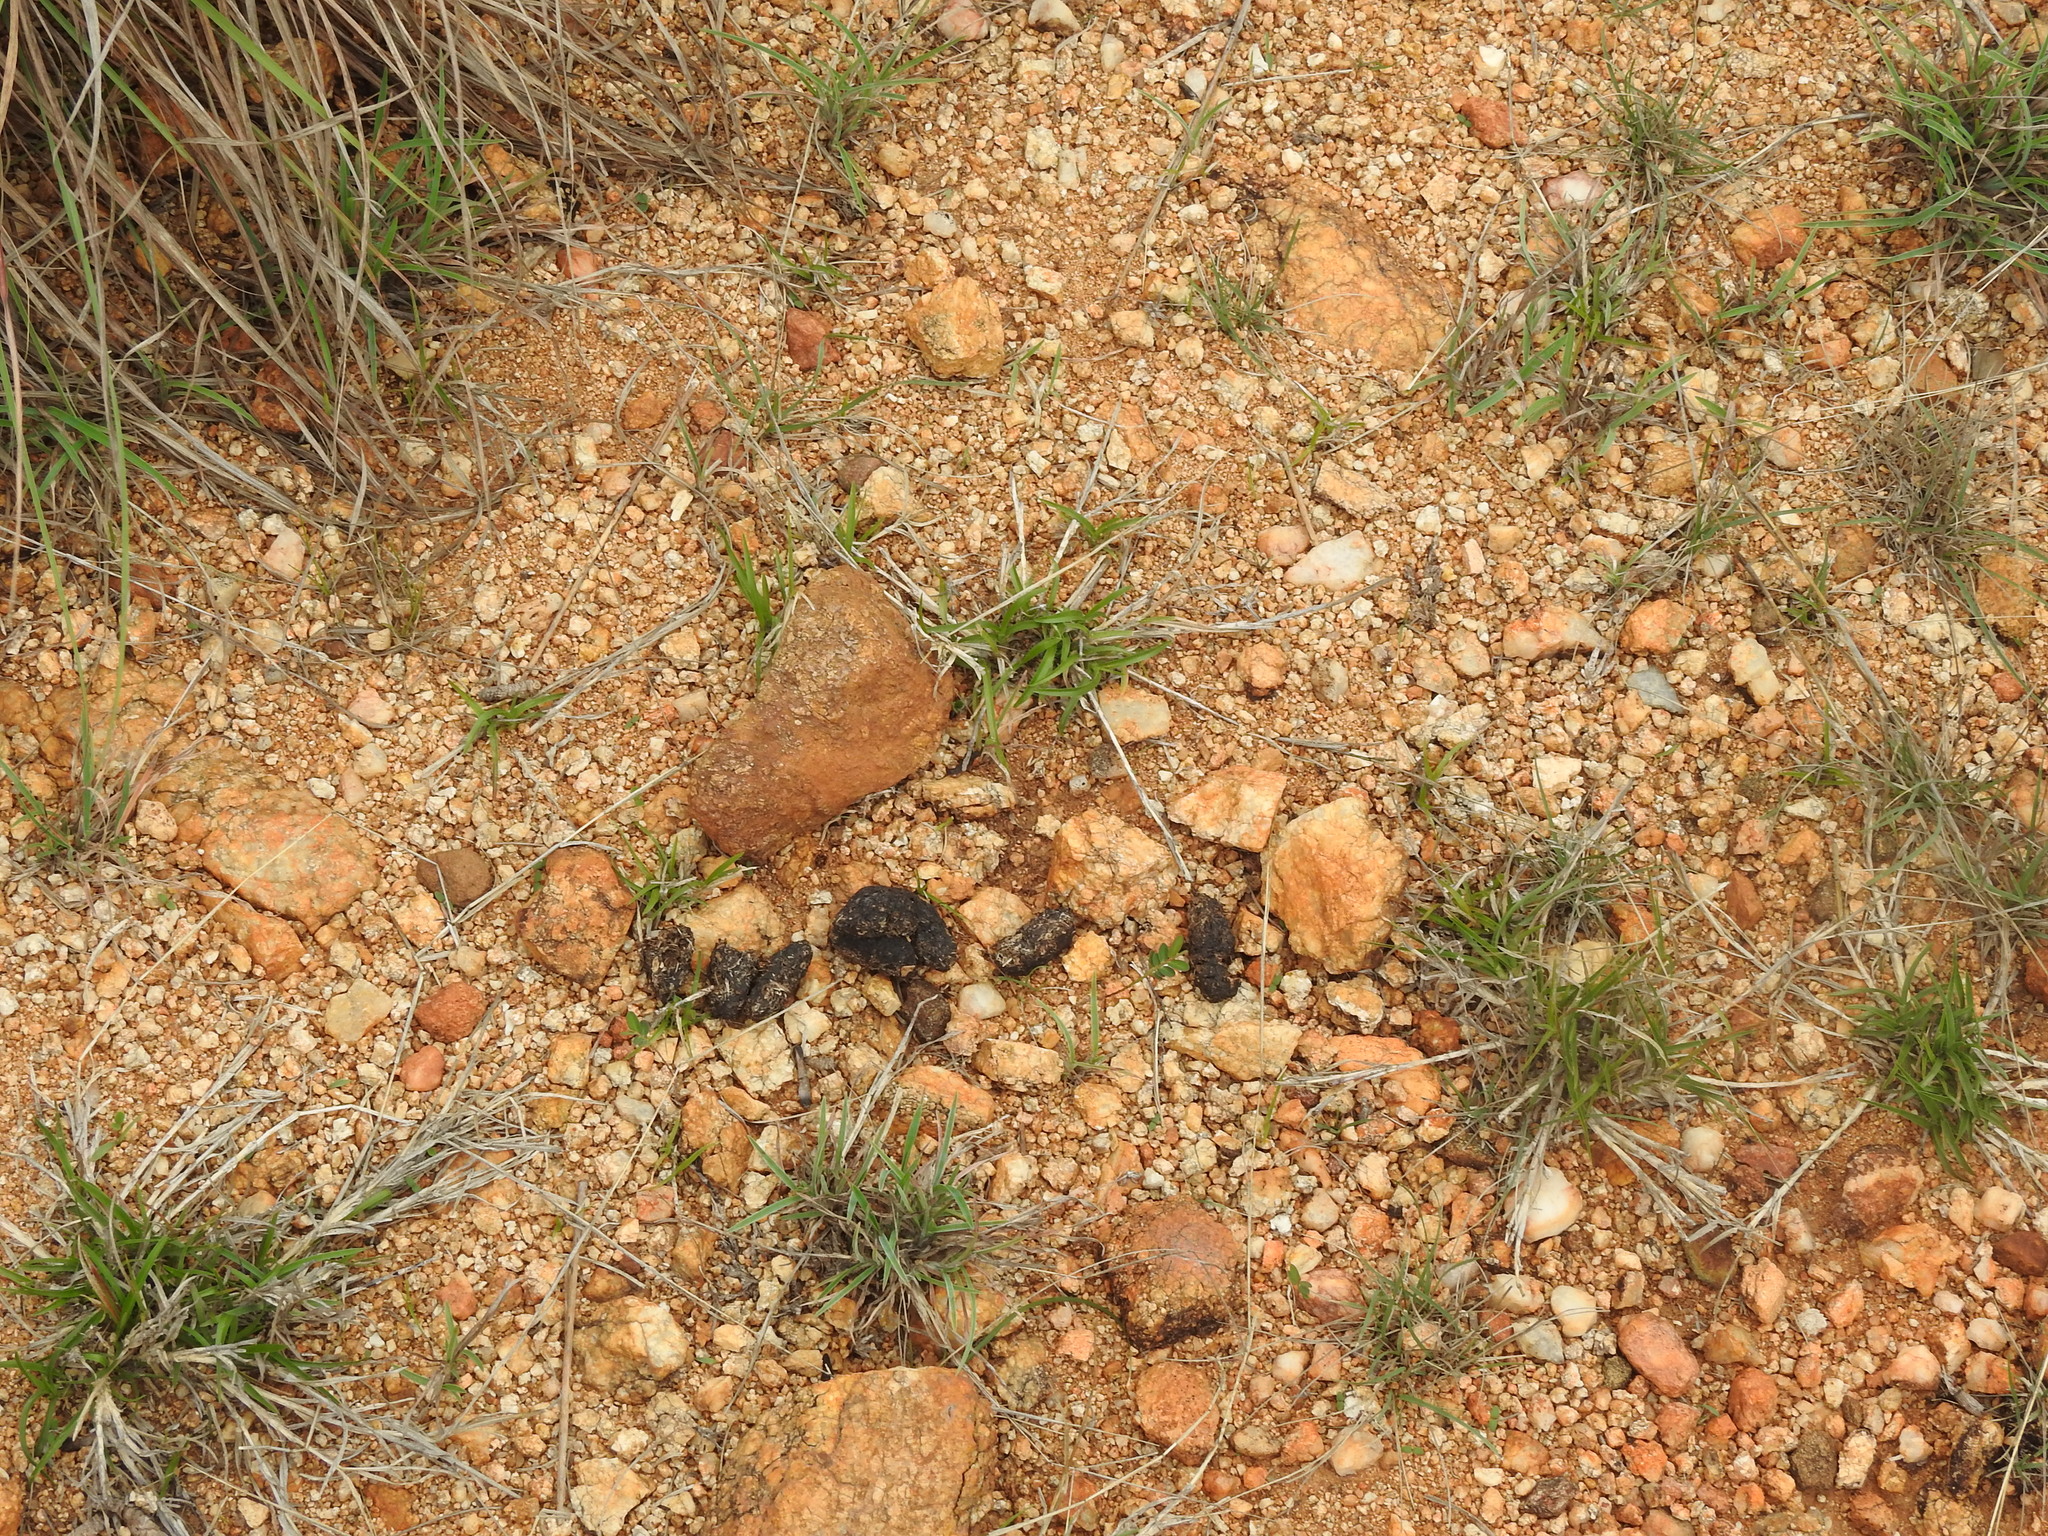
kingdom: Animalia
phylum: Chordata
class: Mammalia
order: Rodentia
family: Hystricidae
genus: Hystrix
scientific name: Hystrix indica
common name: Indian crested porcupine
